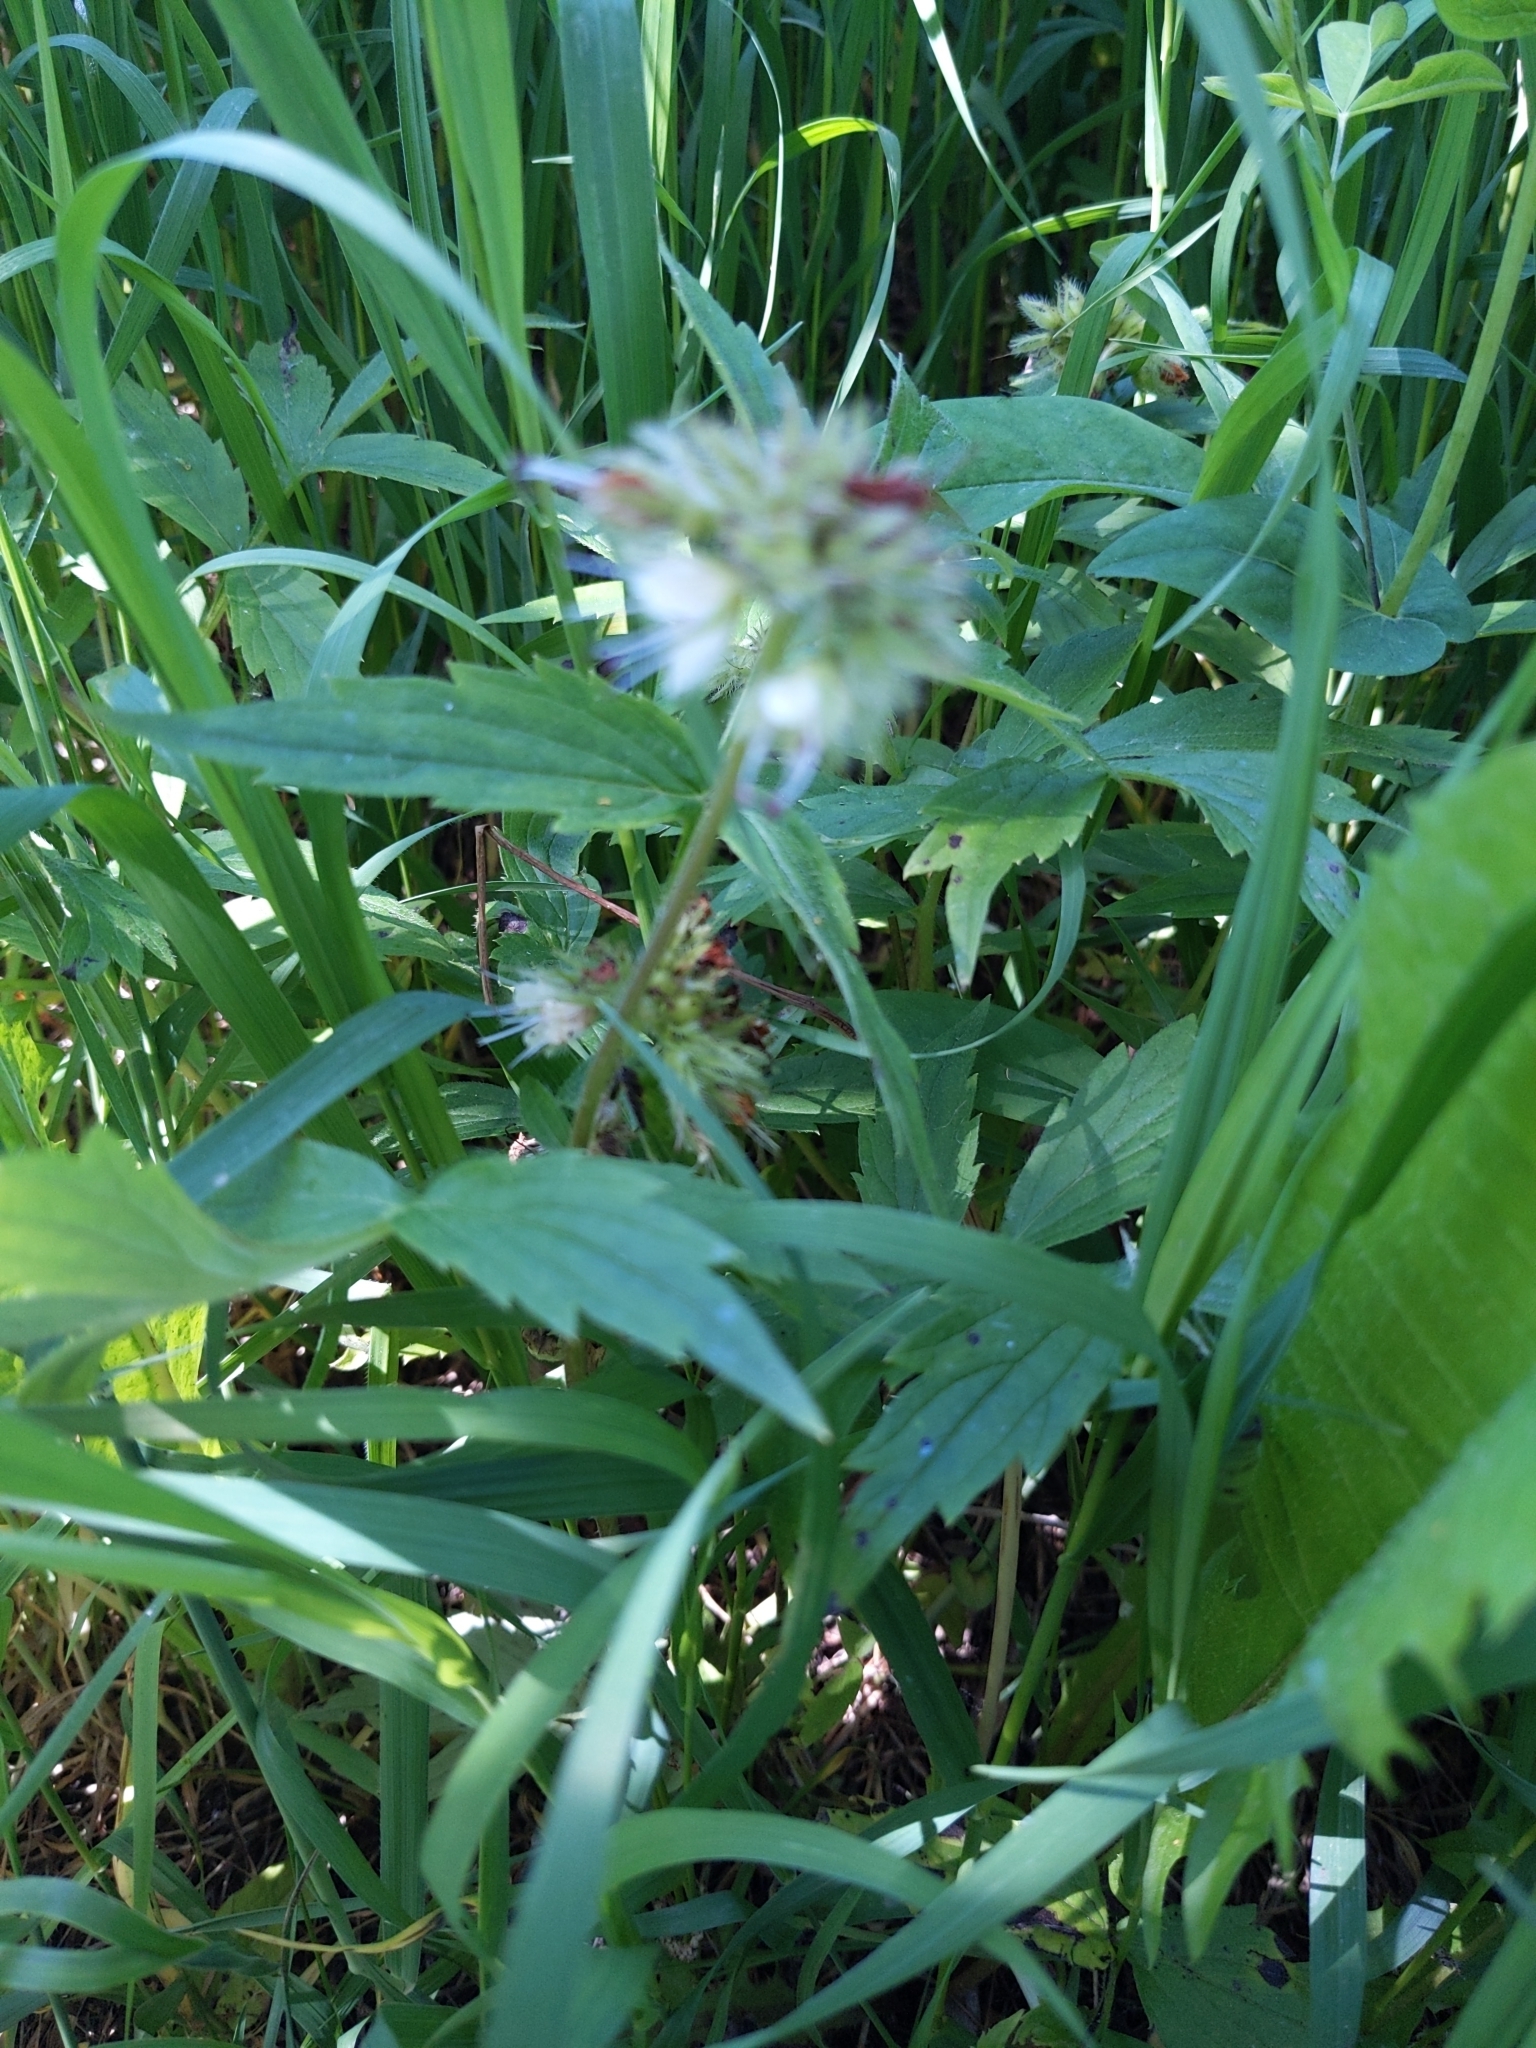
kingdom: Plantae
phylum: Tracheophyta
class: Magnoliopsida
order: Boraginales
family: Hydrophyllaceae
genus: Hydrophyllum
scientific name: Hydrophyllum fendleri
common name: Fendler's waterleaf
